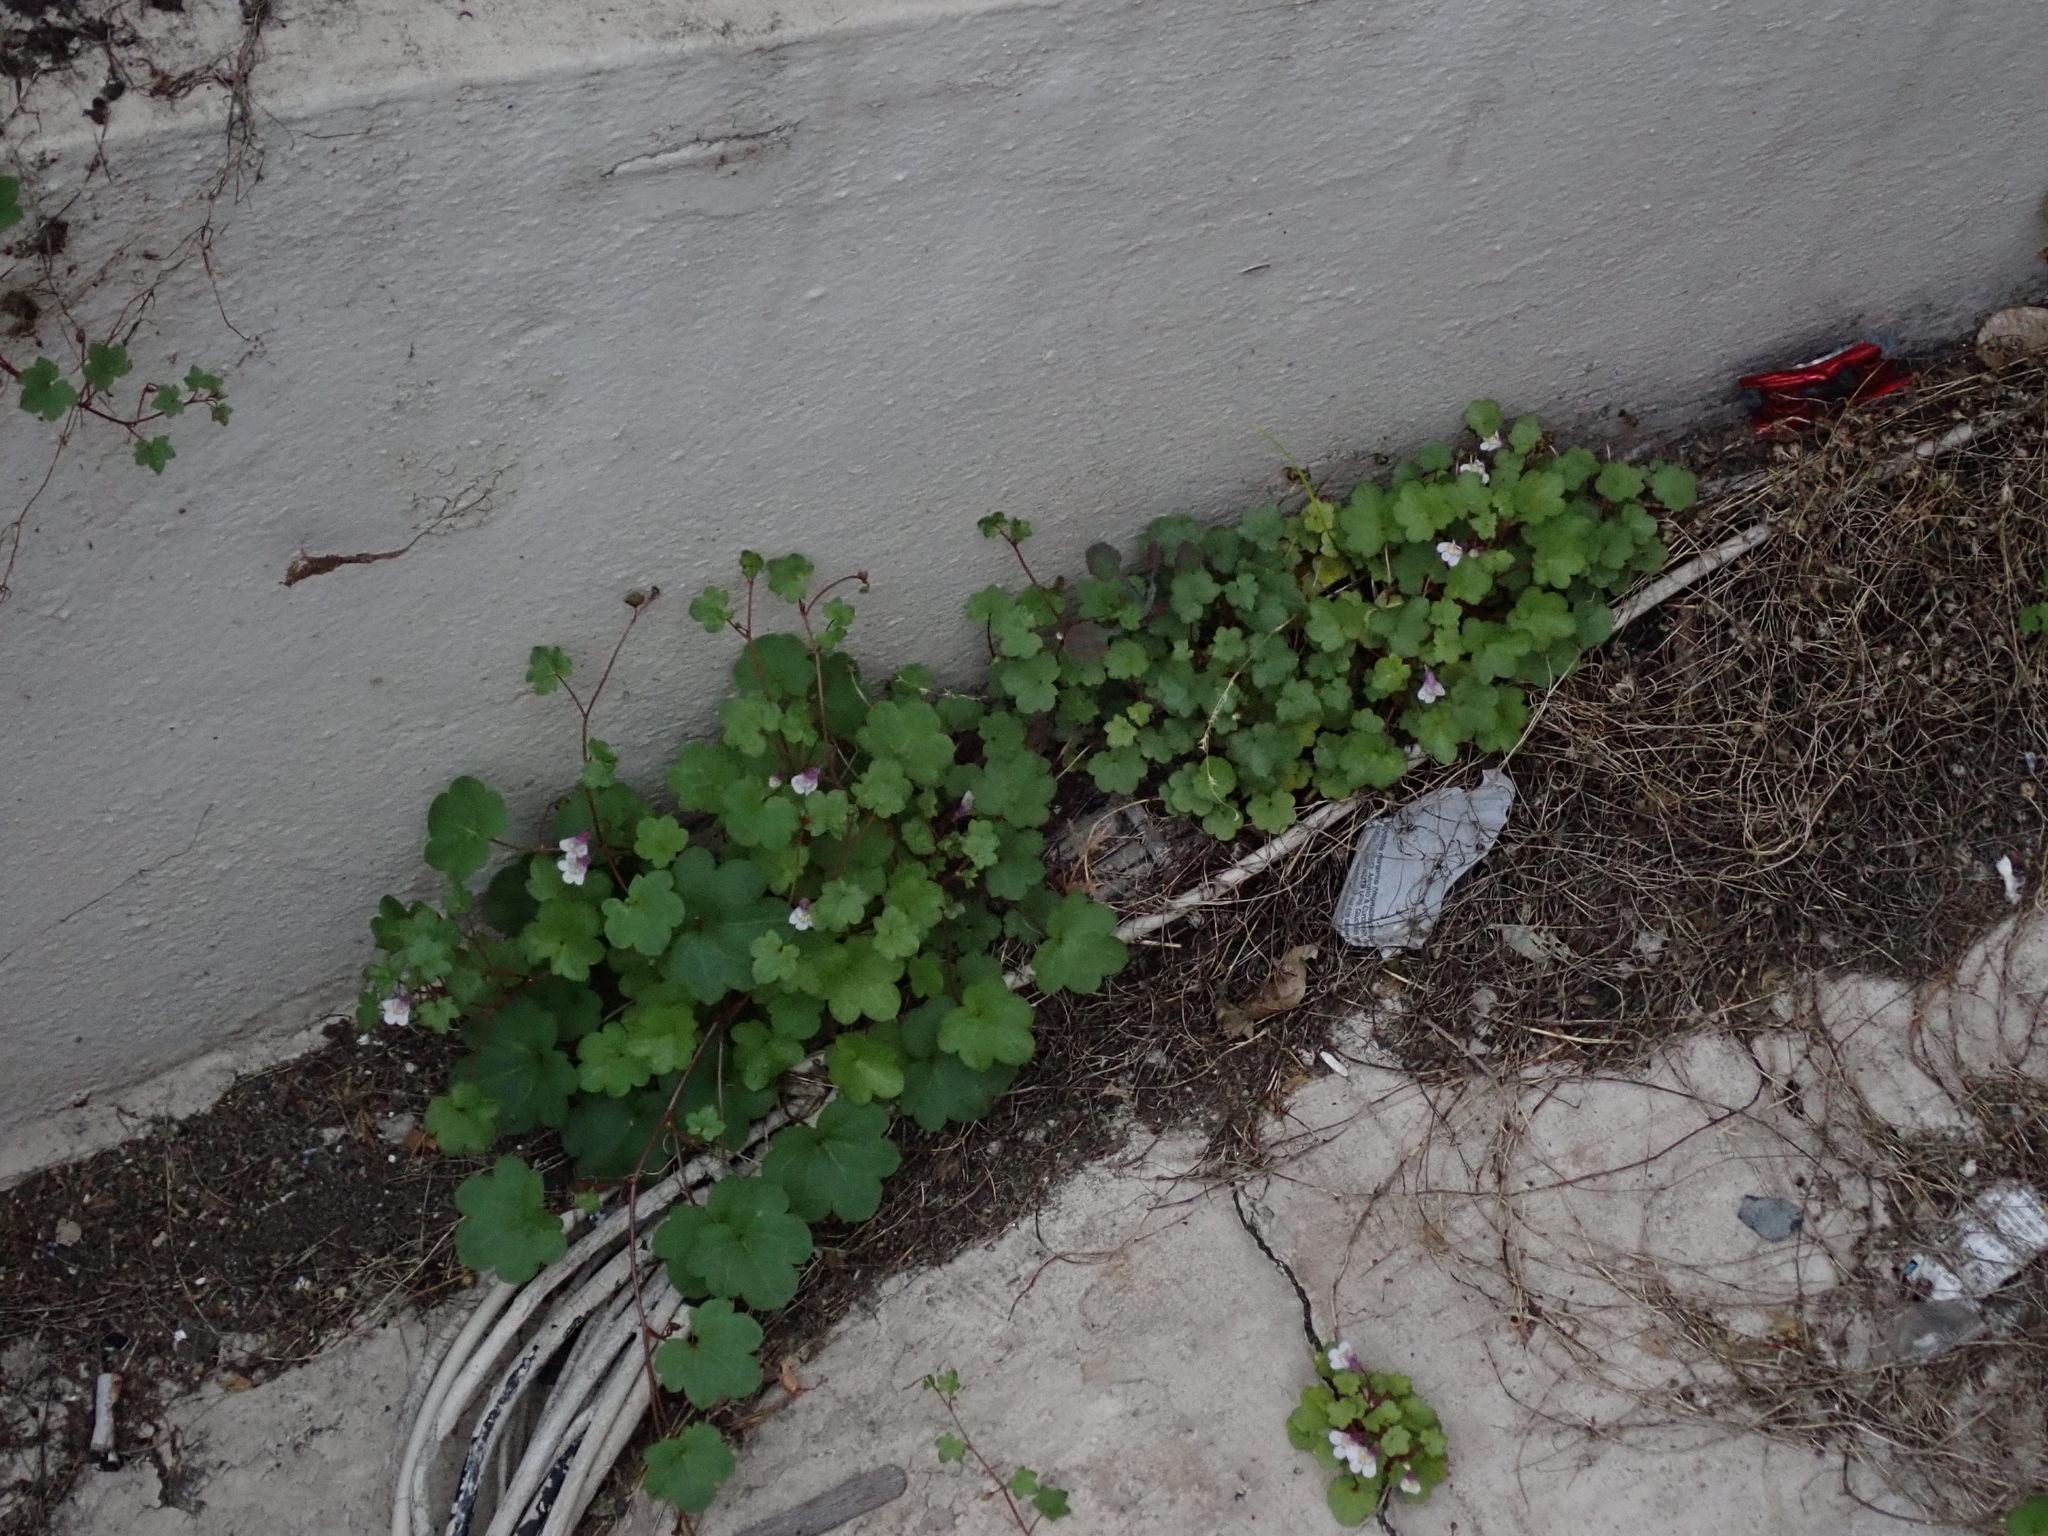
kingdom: Plantae
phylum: Tracheophyta
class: Magnoliopsida
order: Lamiales
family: Plantaginaceae
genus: Cymbalaria
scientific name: Cymbalaria muralis
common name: Ivy-leaved toadflax
